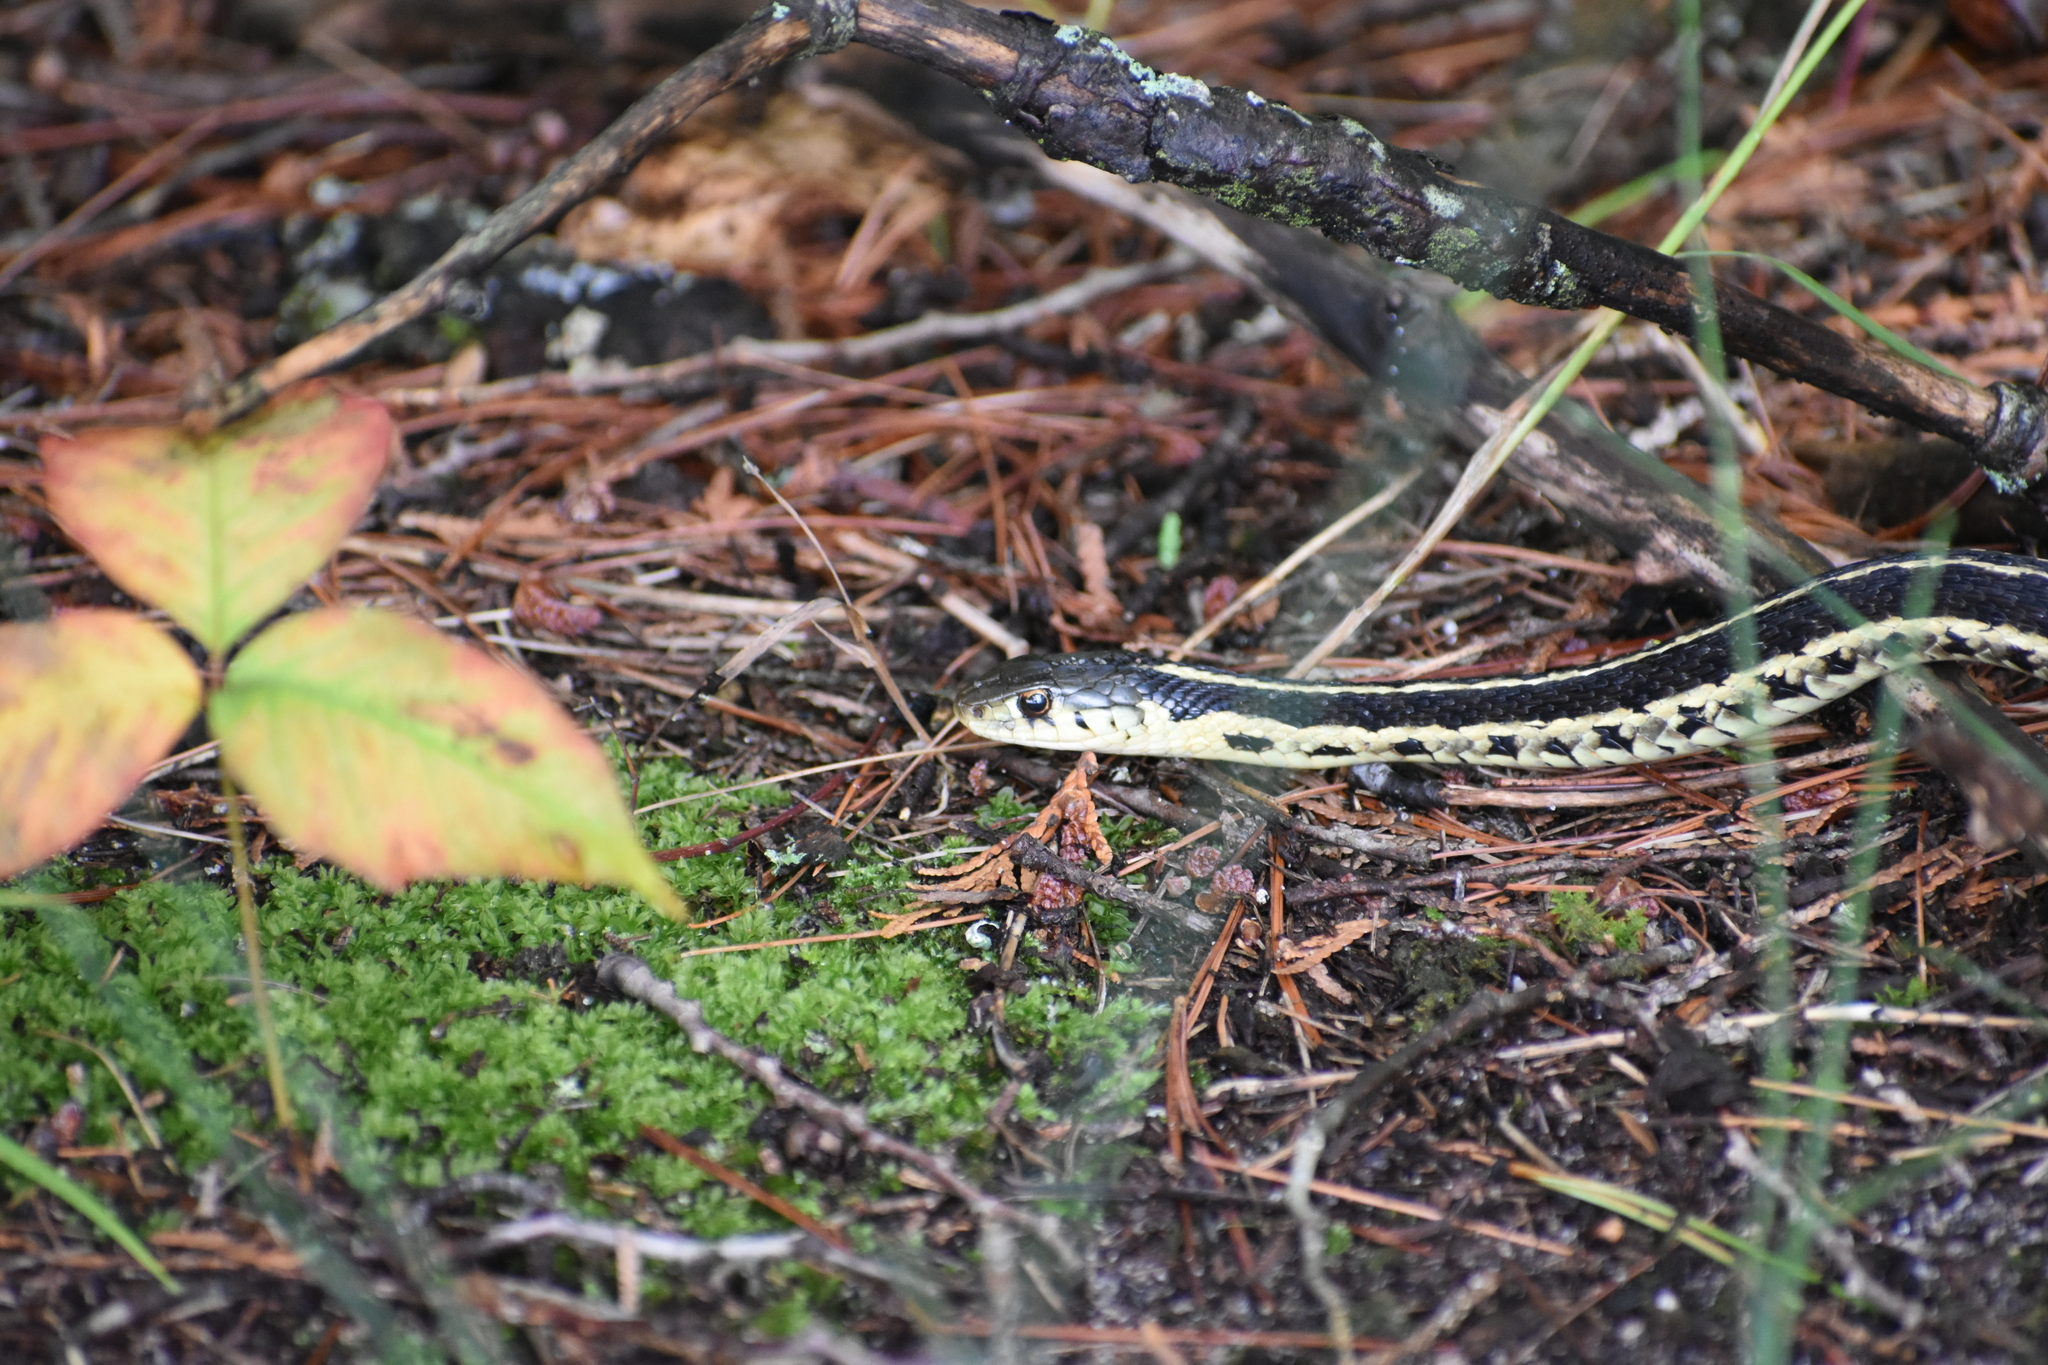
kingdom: Animalia
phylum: Chordata
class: Squamata
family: Colubridae
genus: Thamnophis
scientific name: Thamnophis sirtalis
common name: Common garter snake
